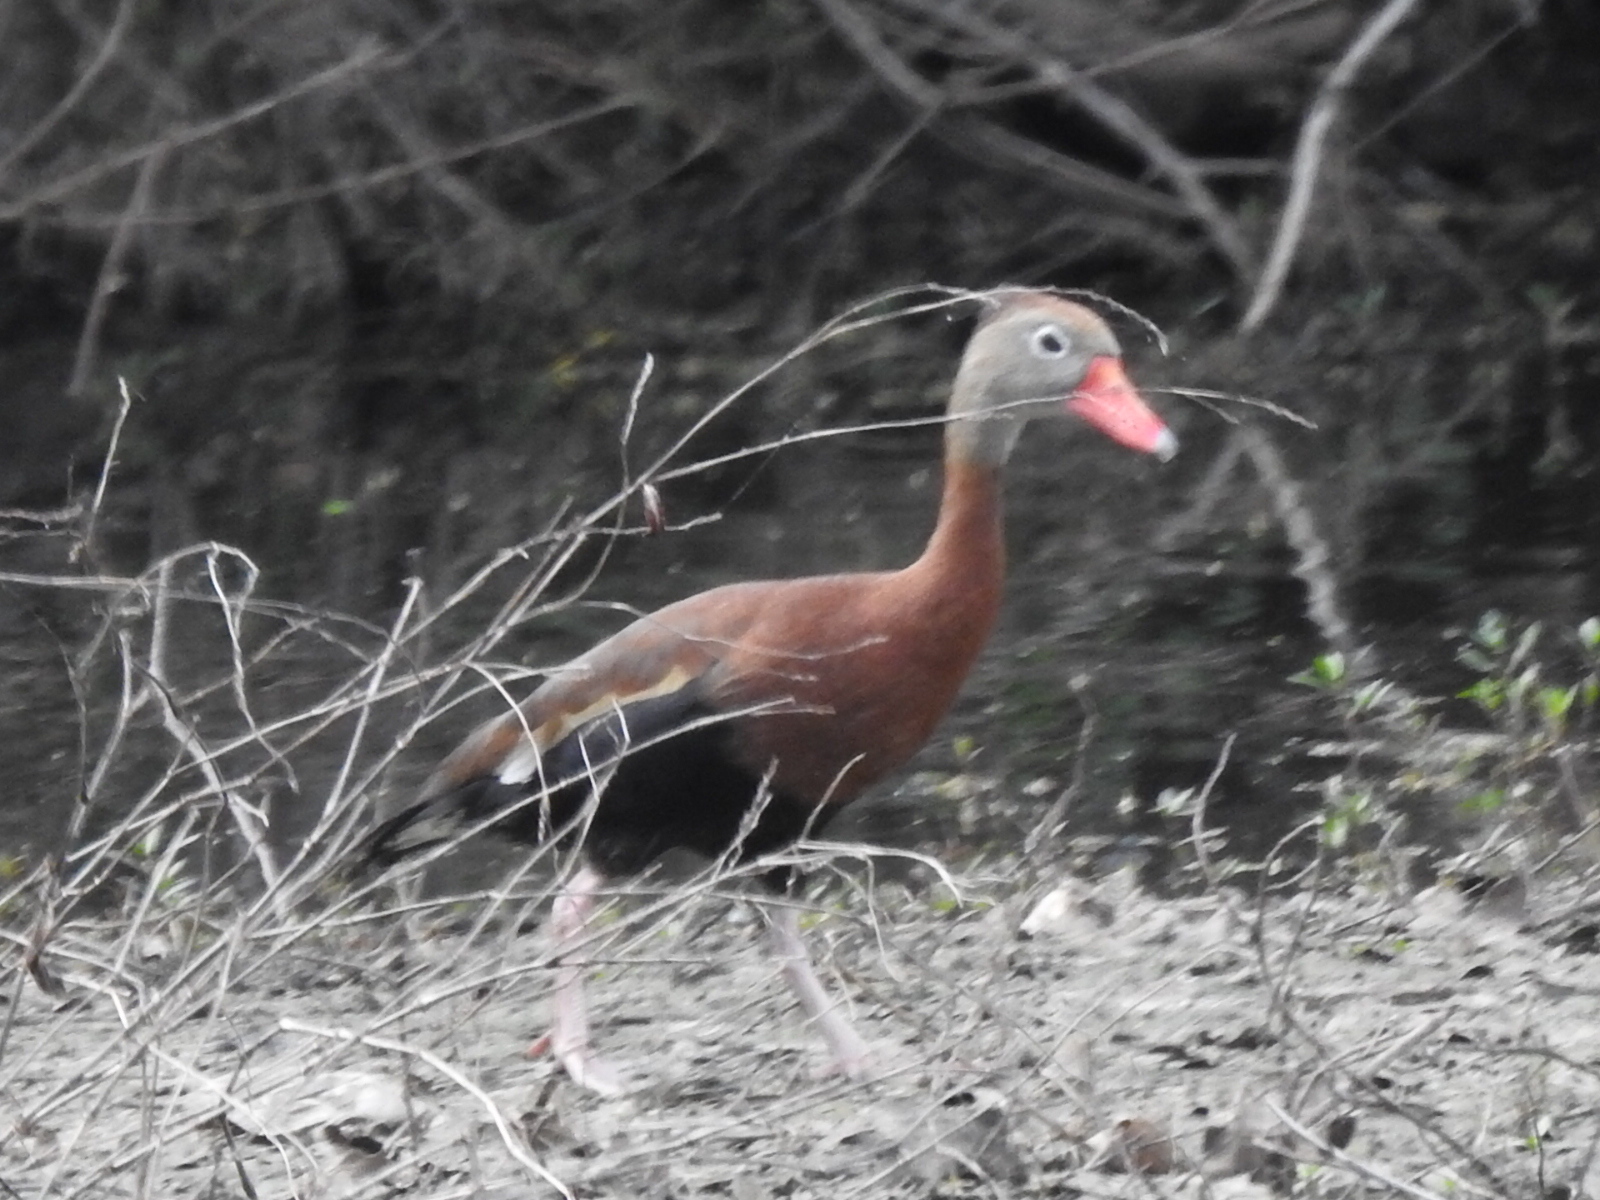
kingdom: Animalia
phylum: Chordata
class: Aves
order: Anseriformes
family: Anatidae
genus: Dendrocygna
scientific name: Dendrocygna autumnalis
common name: Black-bellied whistling duck
